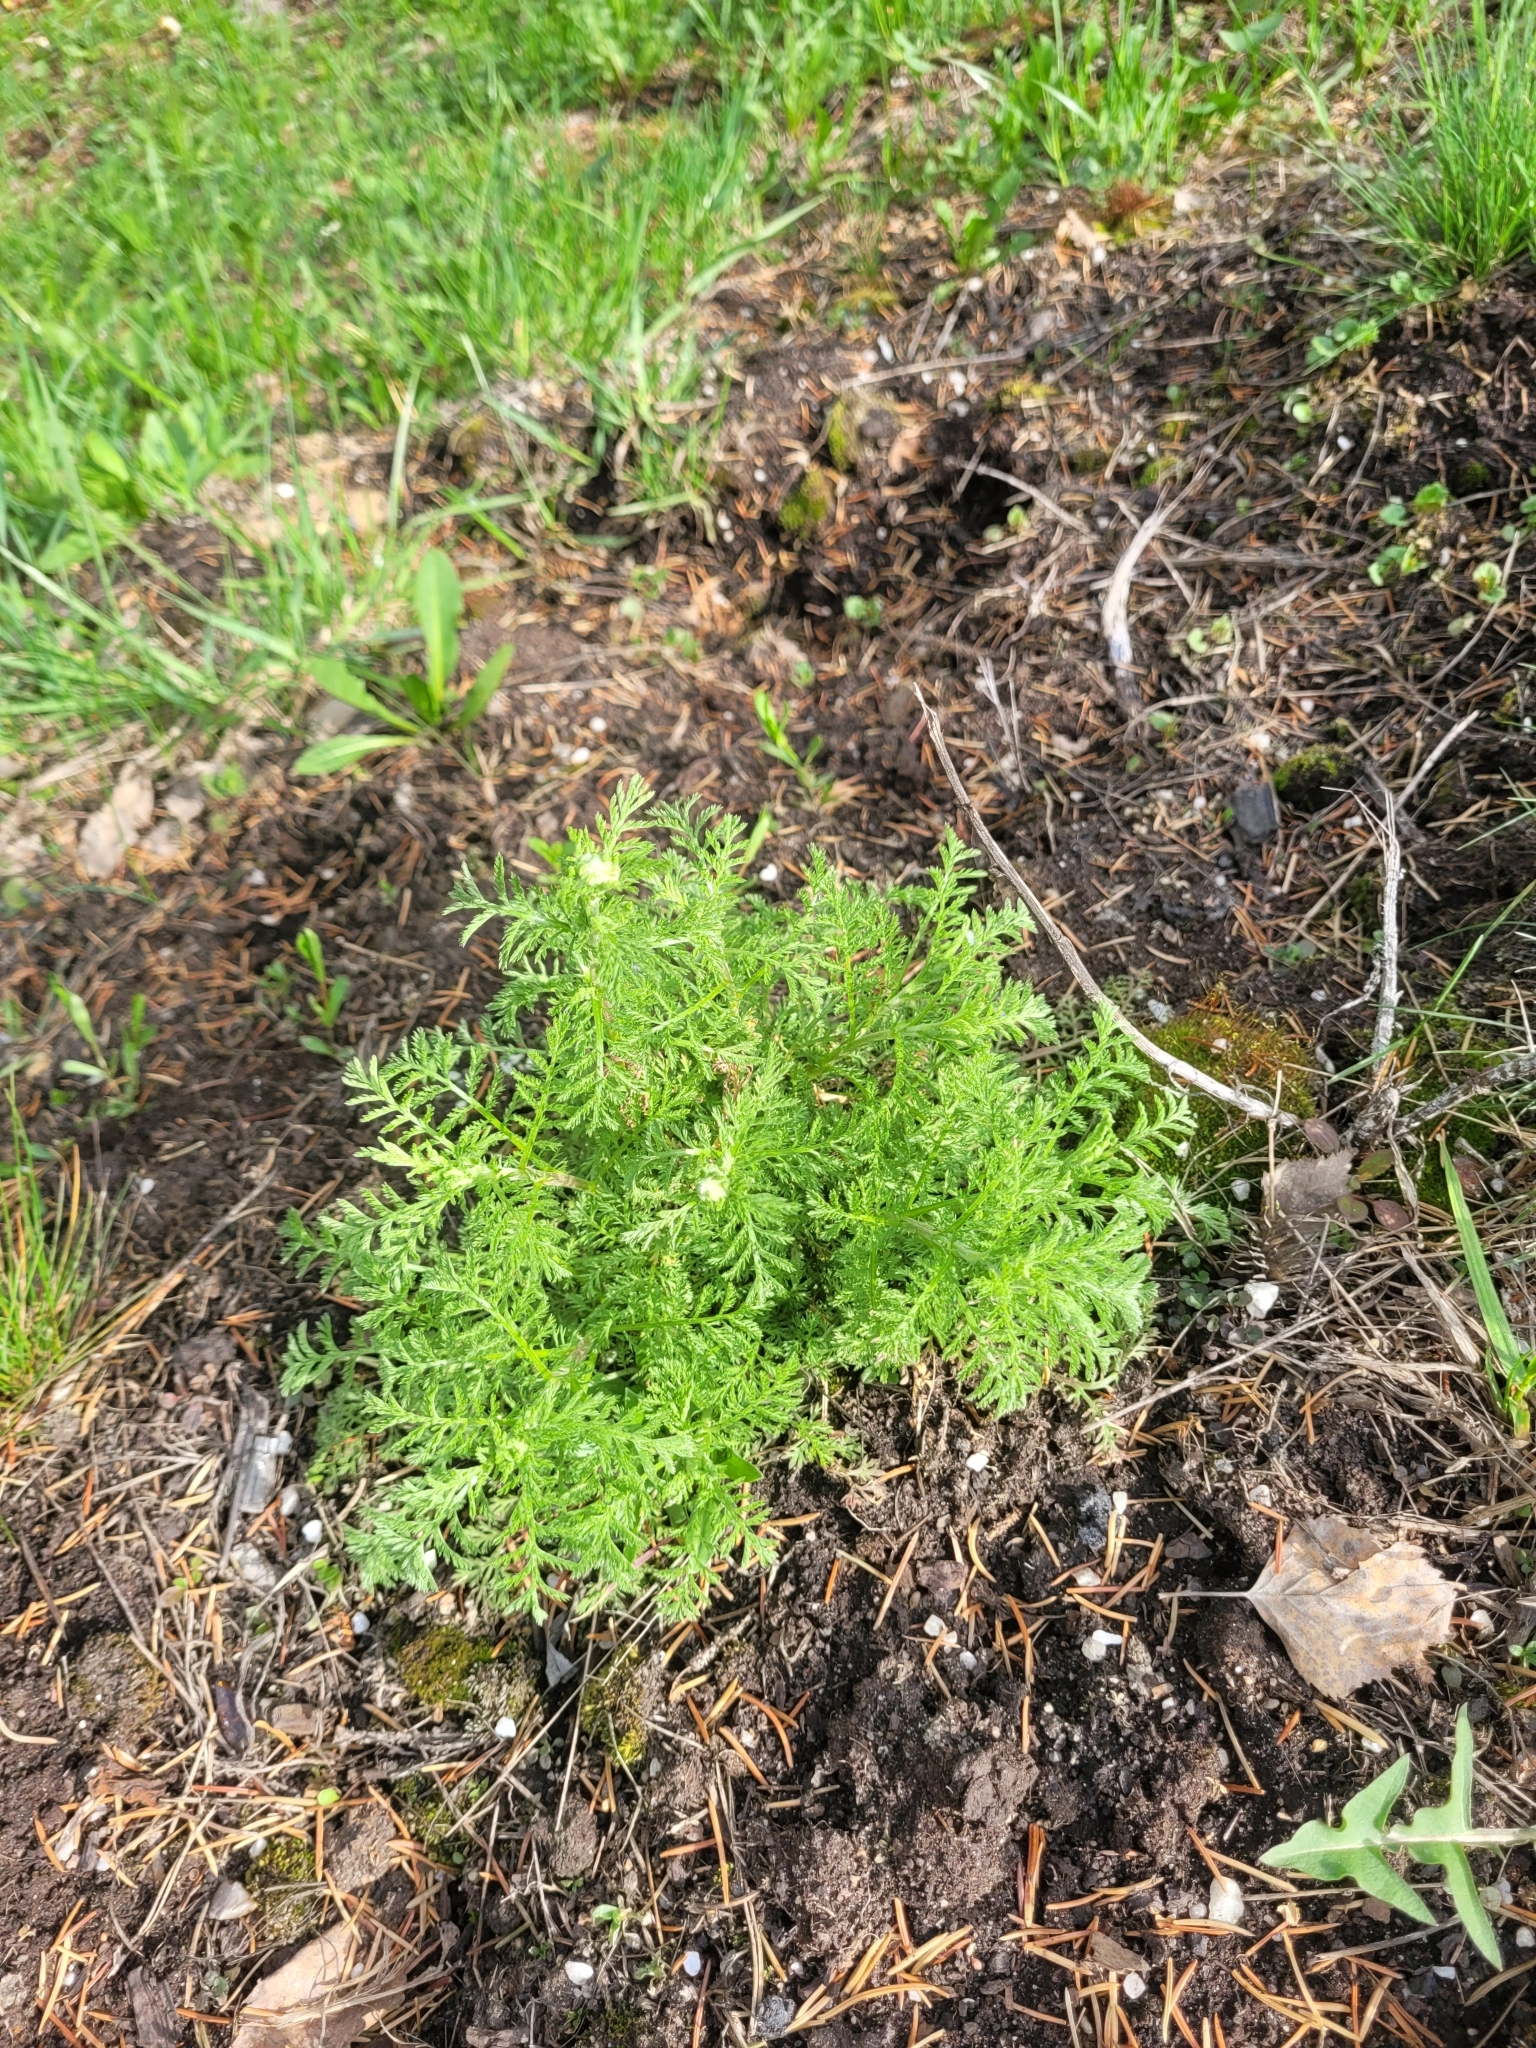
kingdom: Plantae
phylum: Tracheophyta
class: Magnoliopsida
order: Asterales
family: Asteraceae
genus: Achillea
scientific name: Achillea nobilis
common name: Noble yarrow
